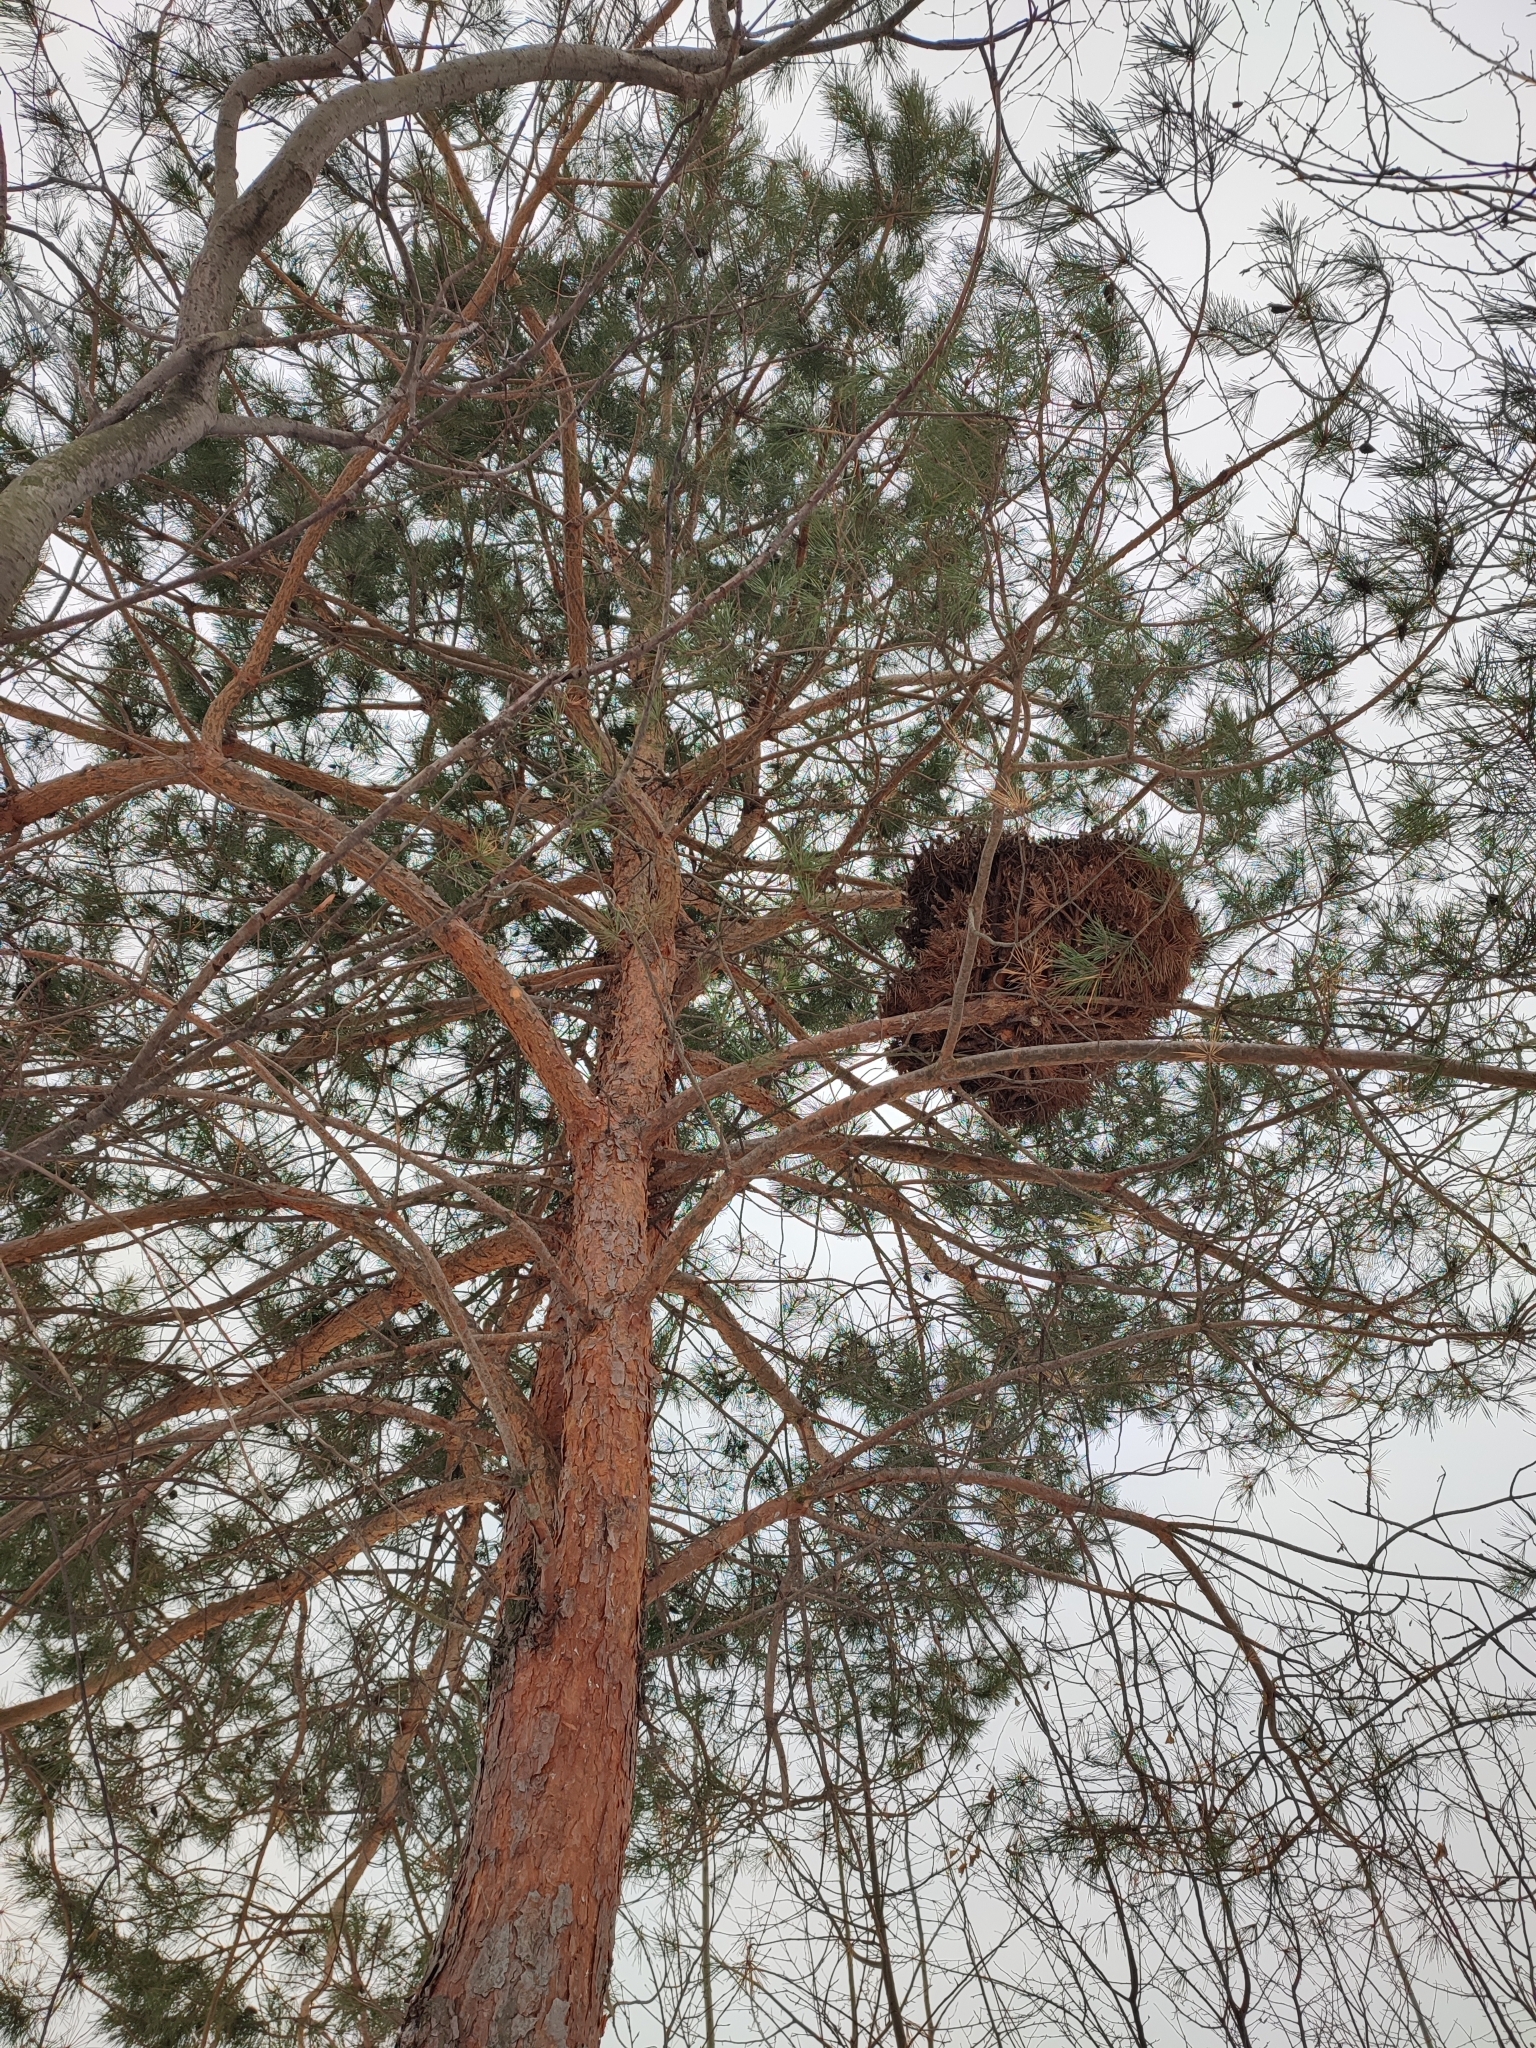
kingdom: Bacteria
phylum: Firmicutes
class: Bacilli
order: Acholeplasmatales
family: Acholeplasmataceae
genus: Phytoplasma
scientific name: Phytoplasma pini
